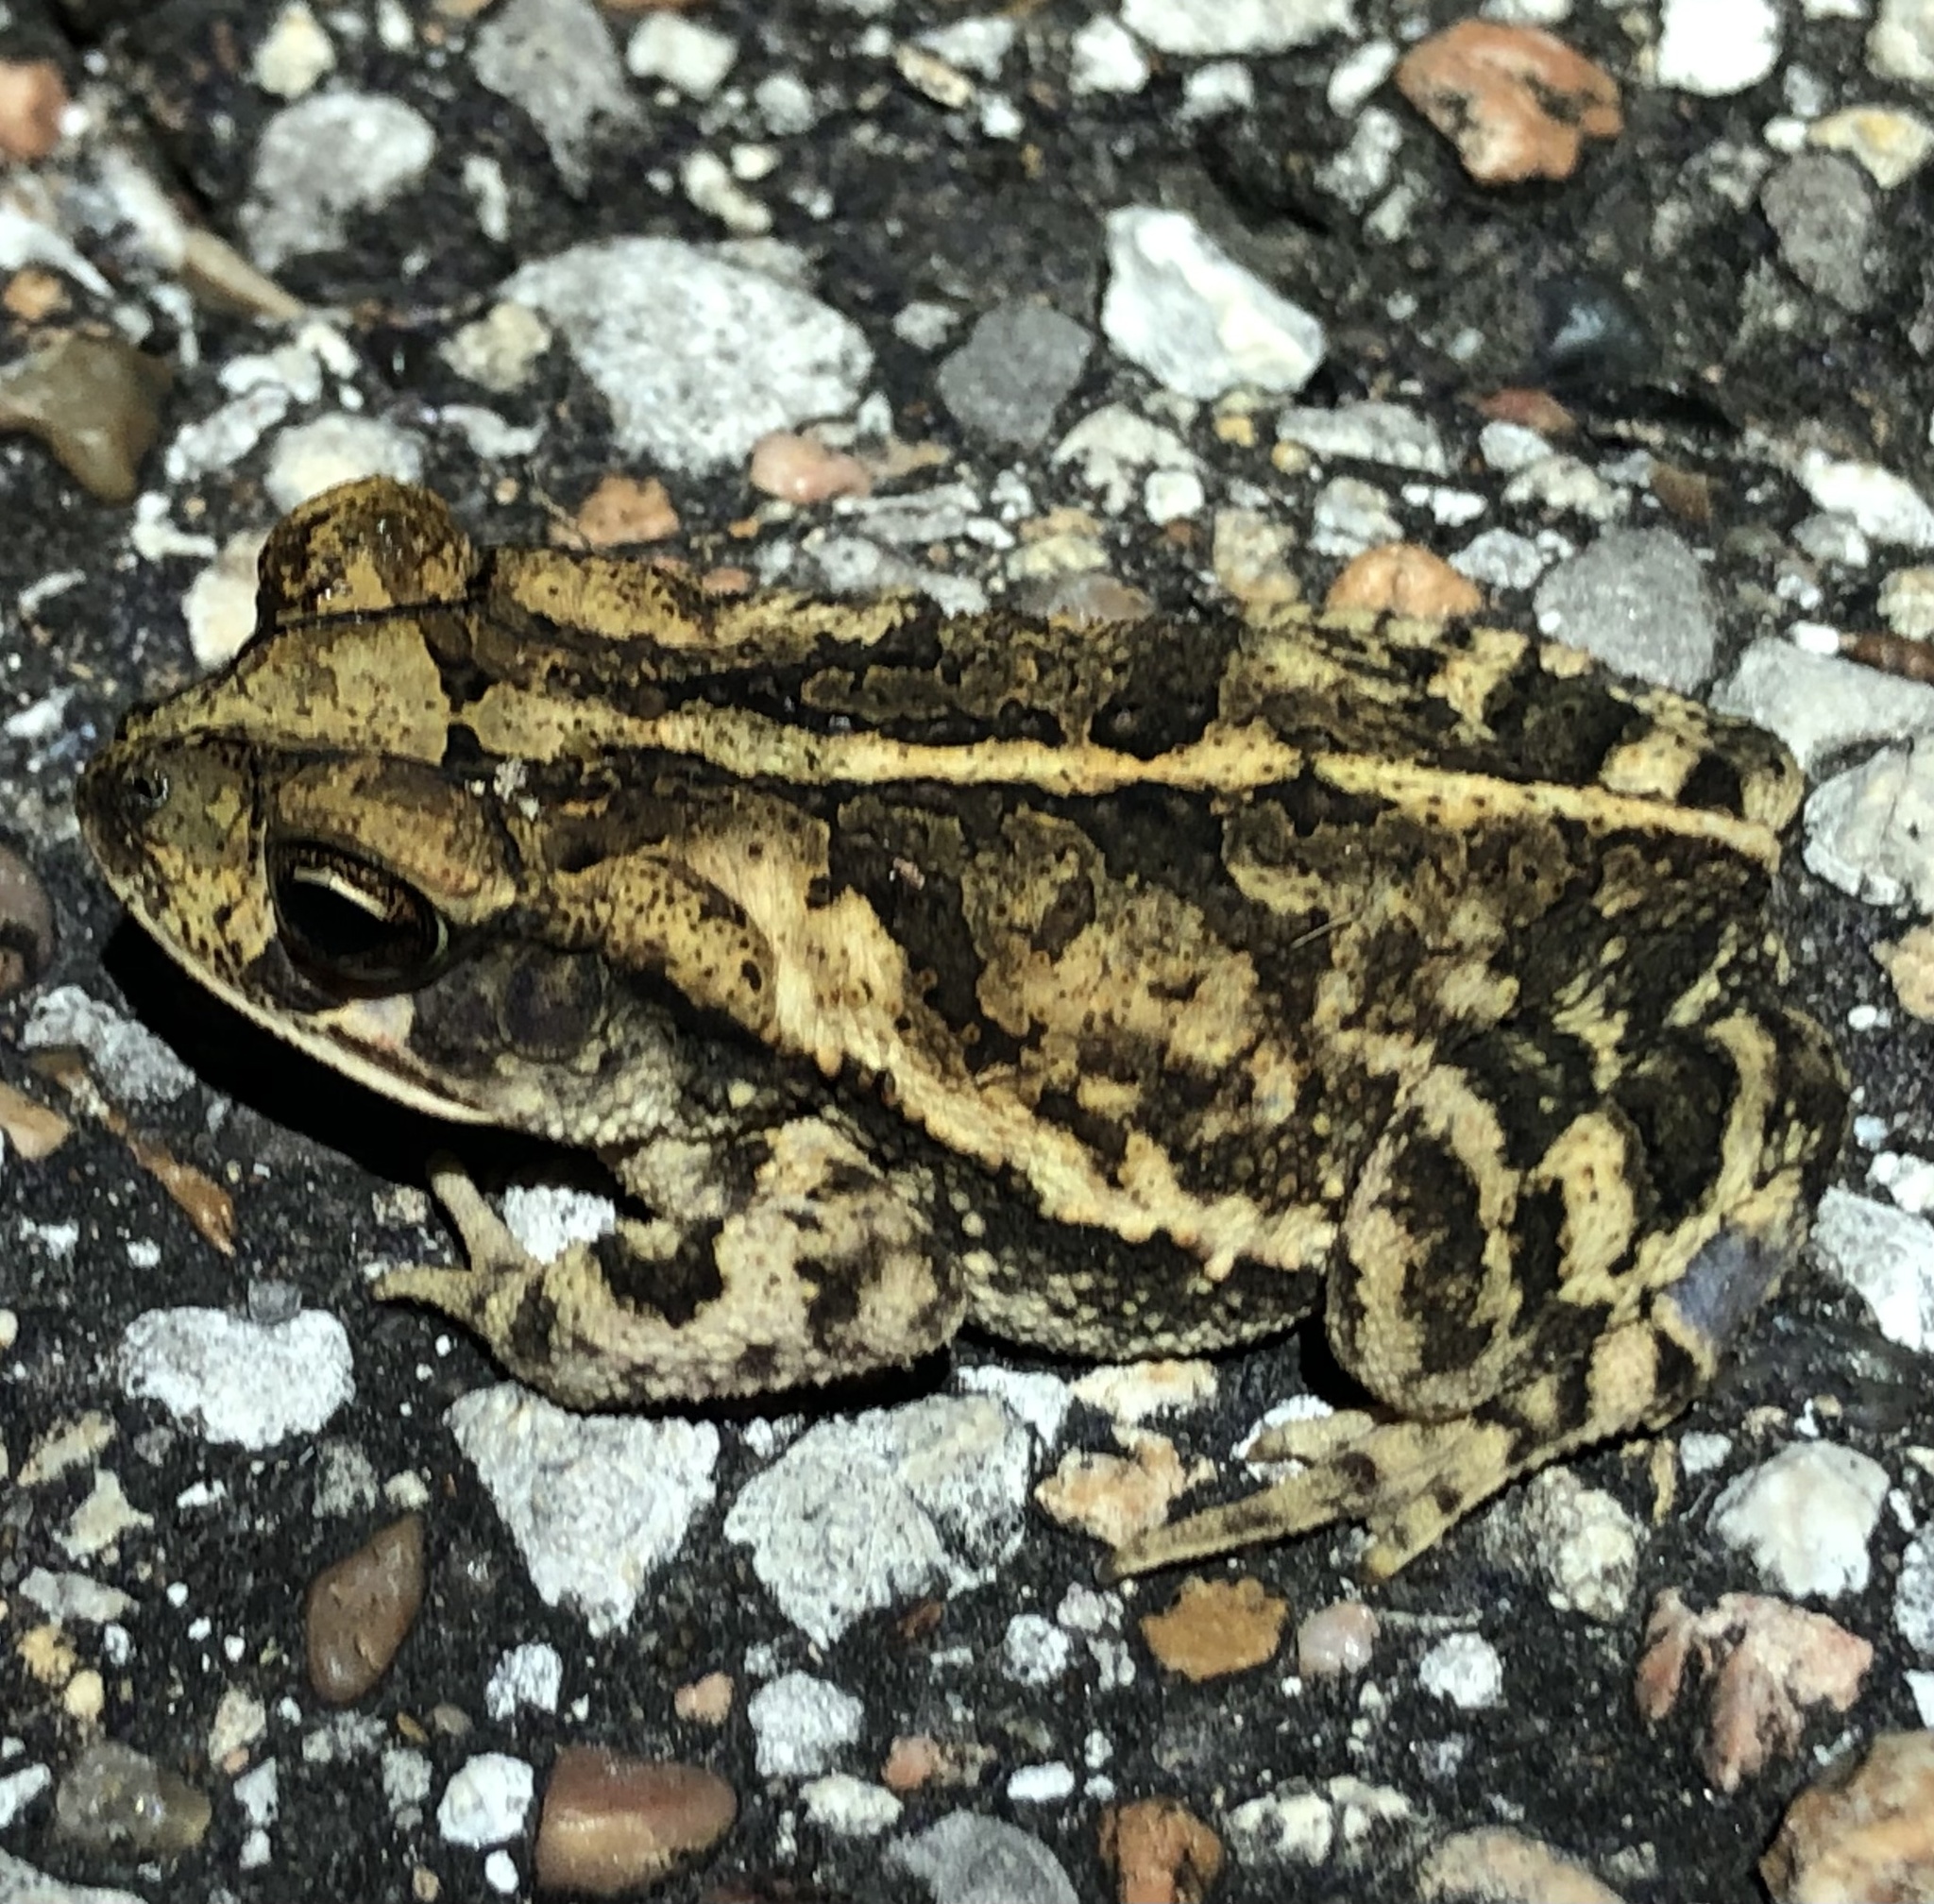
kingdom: Animalia
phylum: Chordata
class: Amphibia
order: Anura
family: Bufonidae
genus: Incilius
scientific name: Incilius nebulifer
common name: Gulf coast toad
